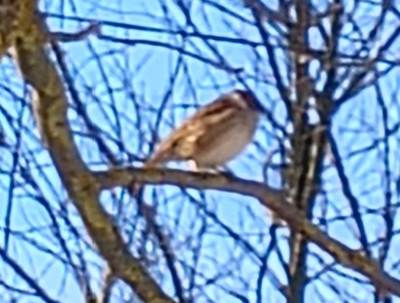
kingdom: Animalia
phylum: Chordata
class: Aves
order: Passeriformes
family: Passeridae
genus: Passer
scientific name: Passer montanus
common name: Eurasian tree sparrow
